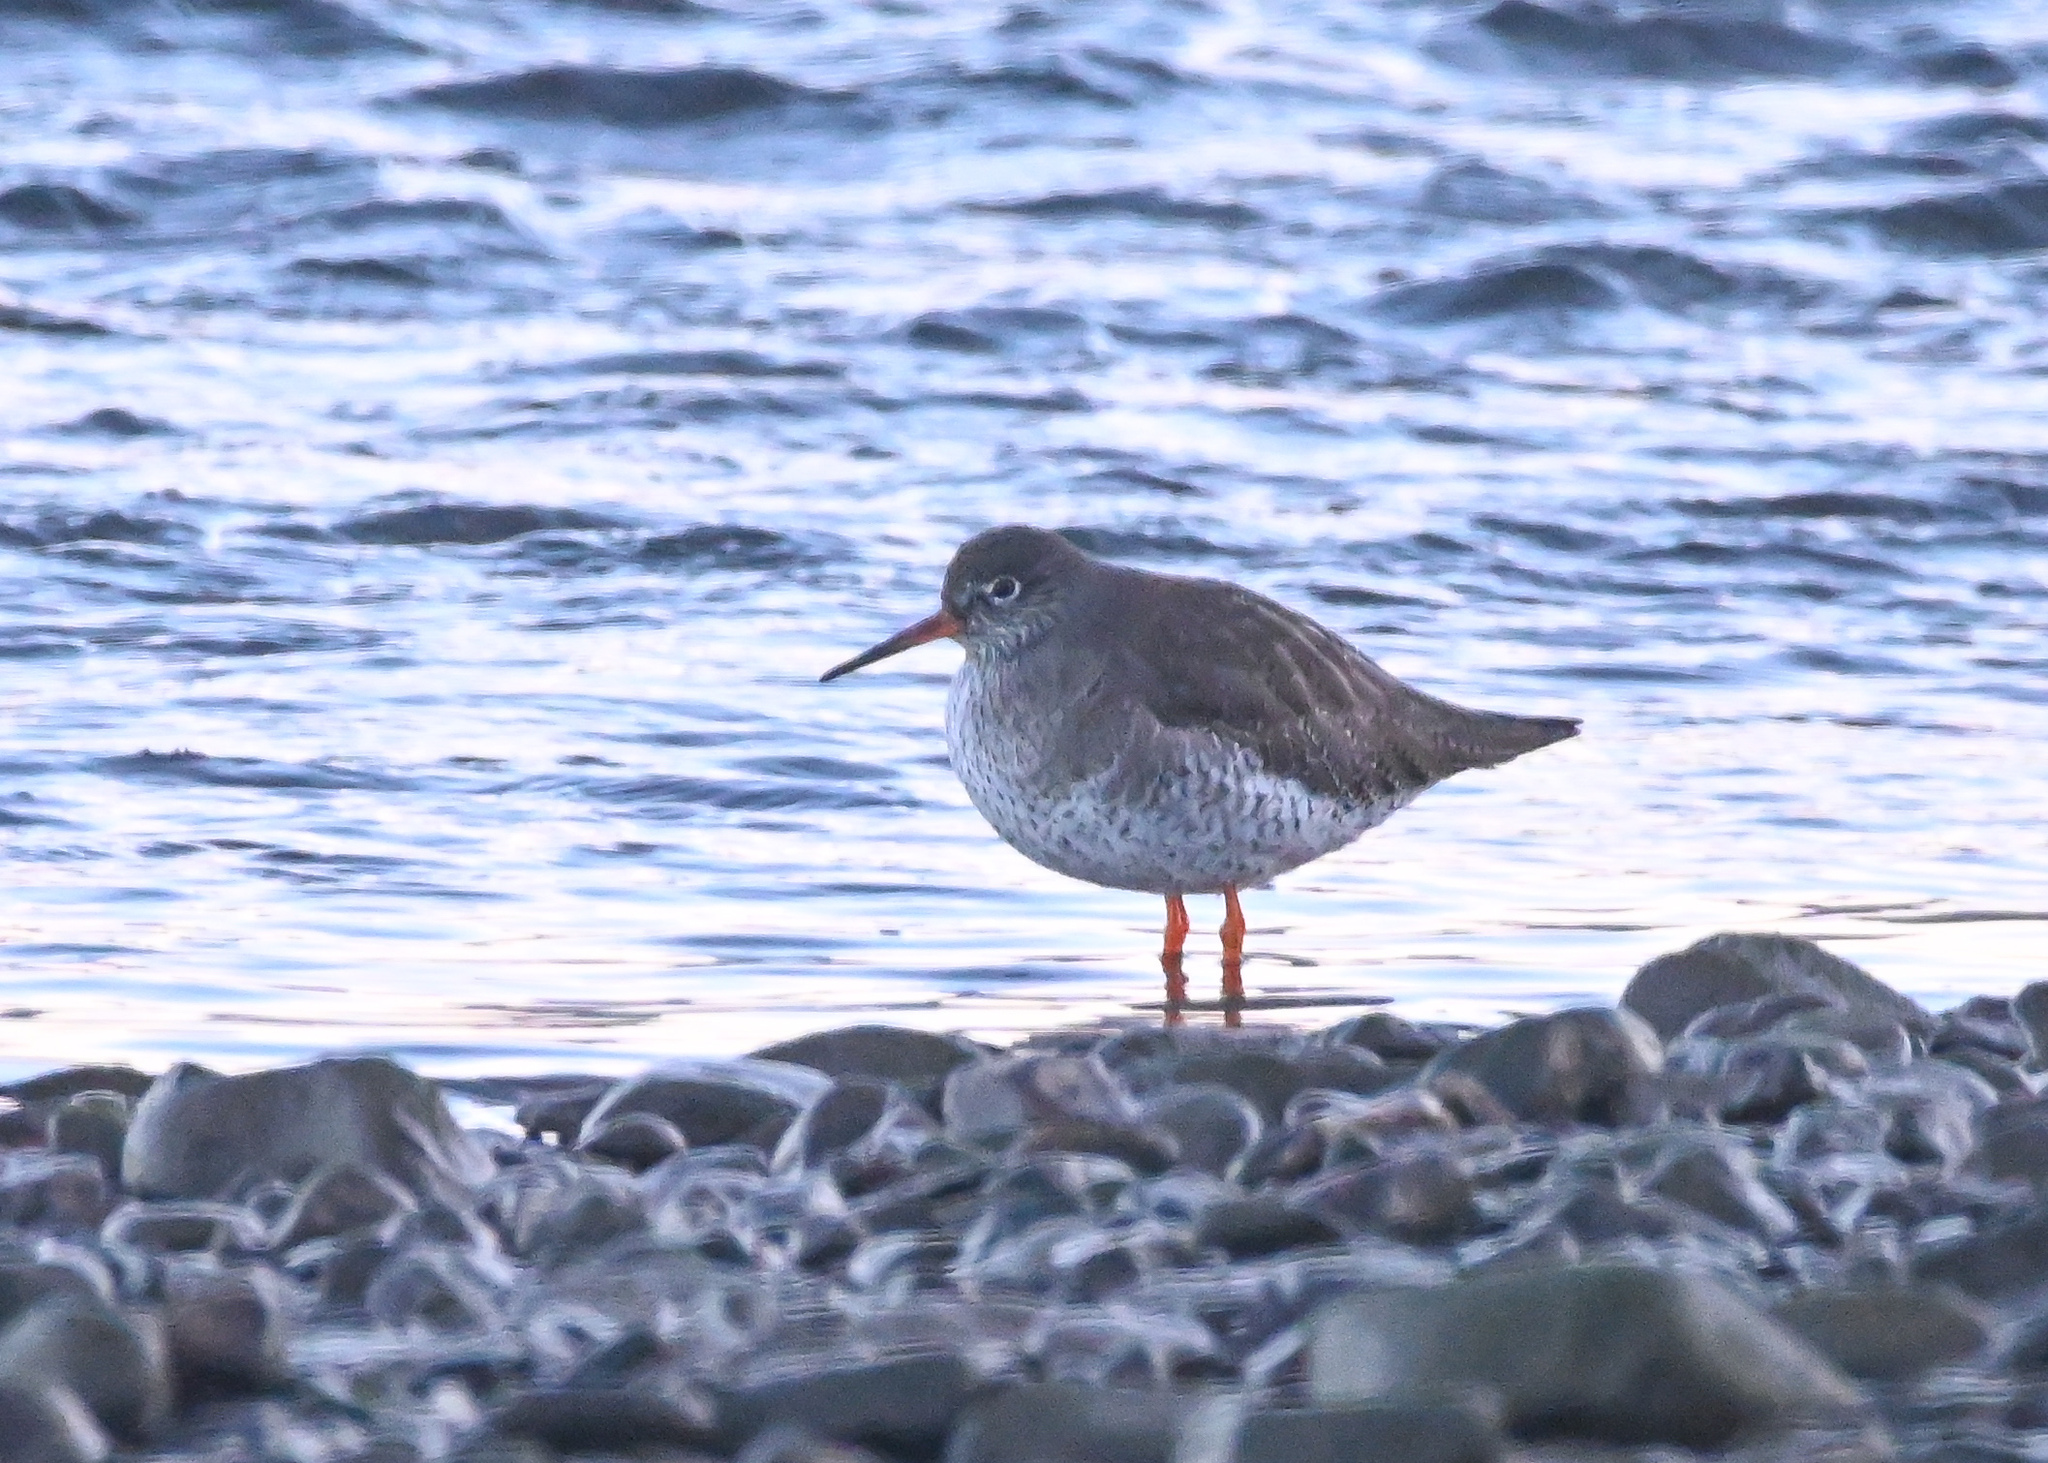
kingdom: Animalia
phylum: Chordata
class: Aves
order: Charadriiformes
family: Scolopacidae
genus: Tringa
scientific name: Tringa totanus
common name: Common redshank
